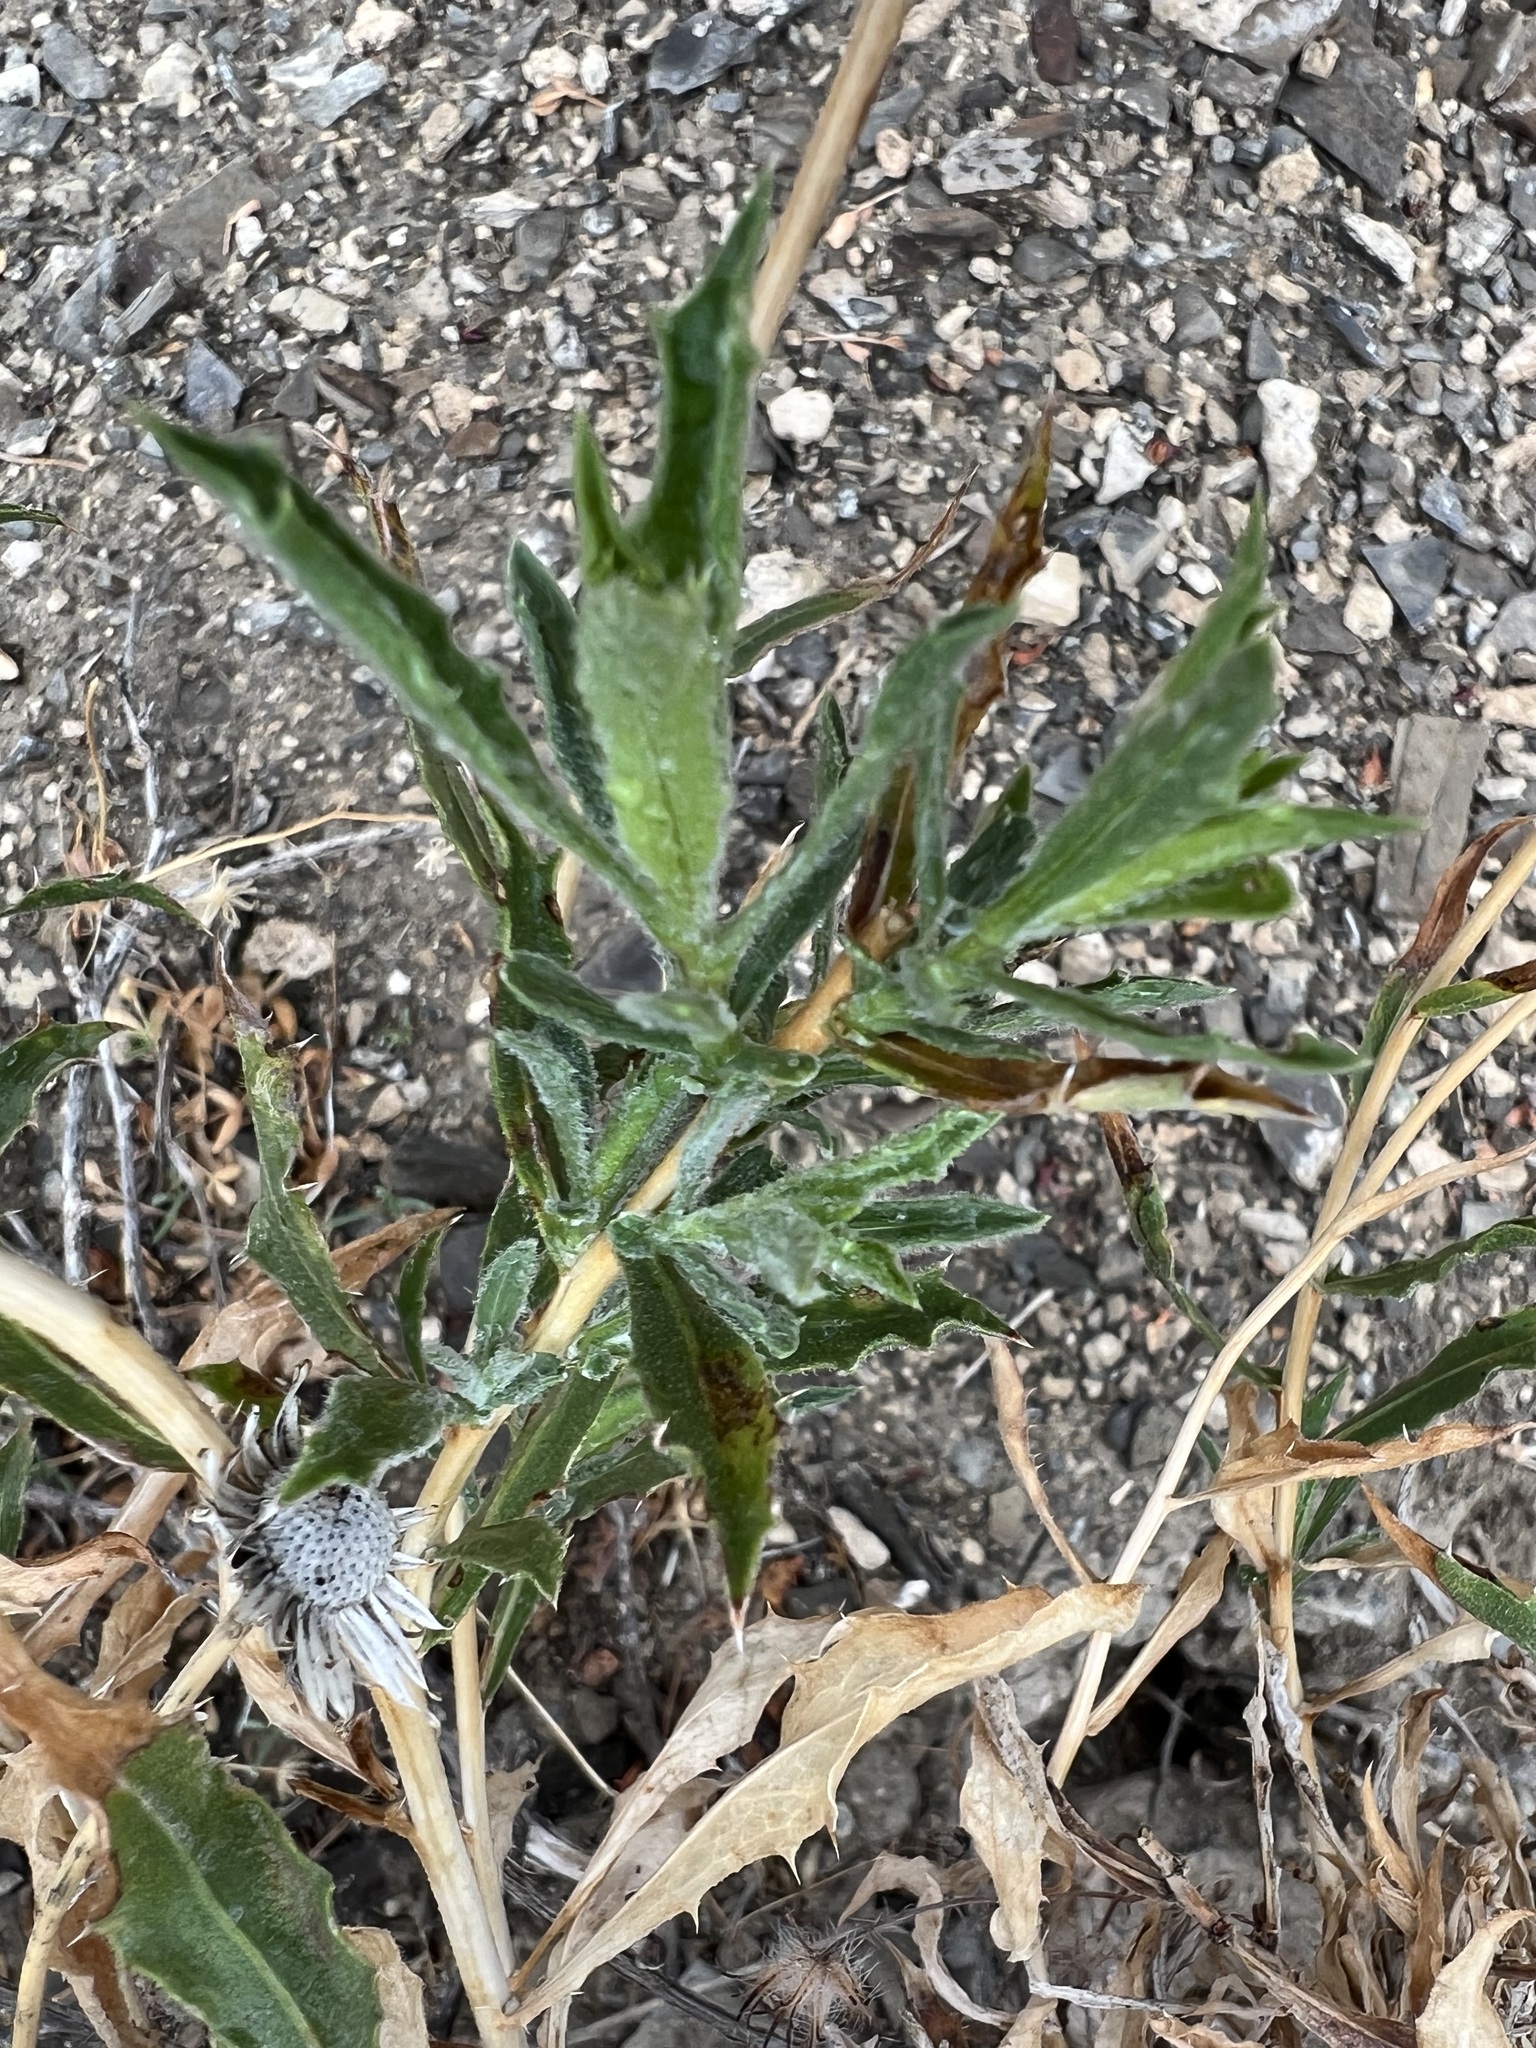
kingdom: Plantae
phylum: Tracheophyta
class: Magnoliopsida
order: Asterales
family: Asteraceae
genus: Xylorhiza
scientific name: Xylorhiza tortifolia
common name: Hurt-leaf woody-aster
